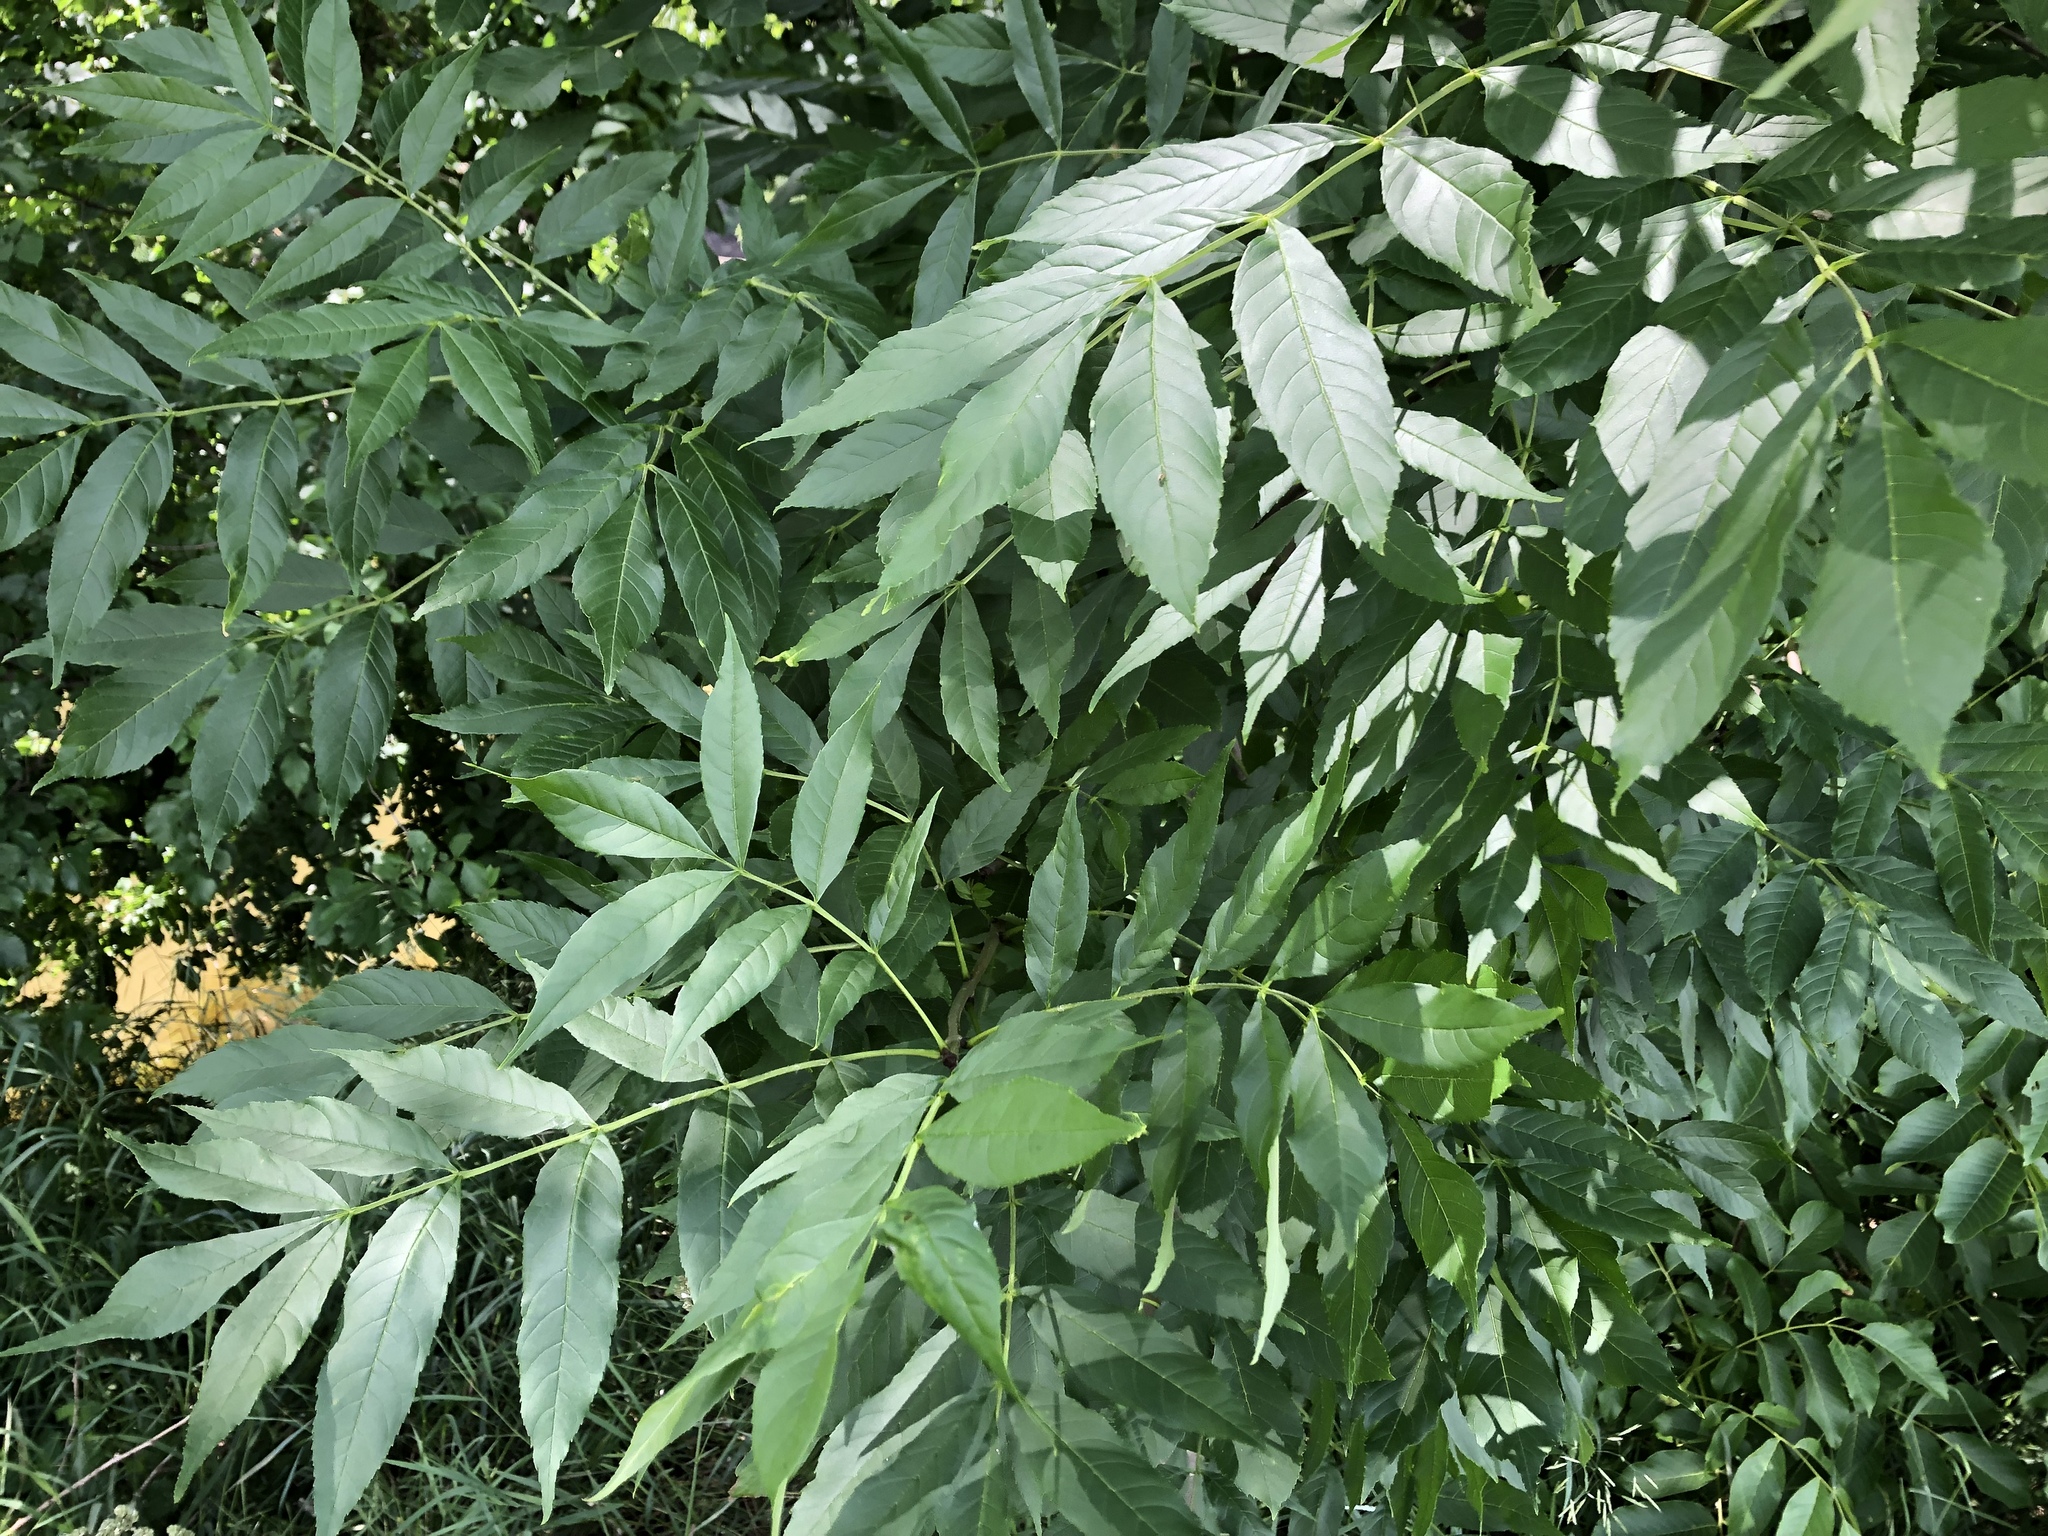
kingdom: Plantae
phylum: Tracheophyta
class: Magnoliopsida
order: Lamiales
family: Oleaceae
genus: Fraxinus
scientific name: Fraxinus excelsior
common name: European ash
